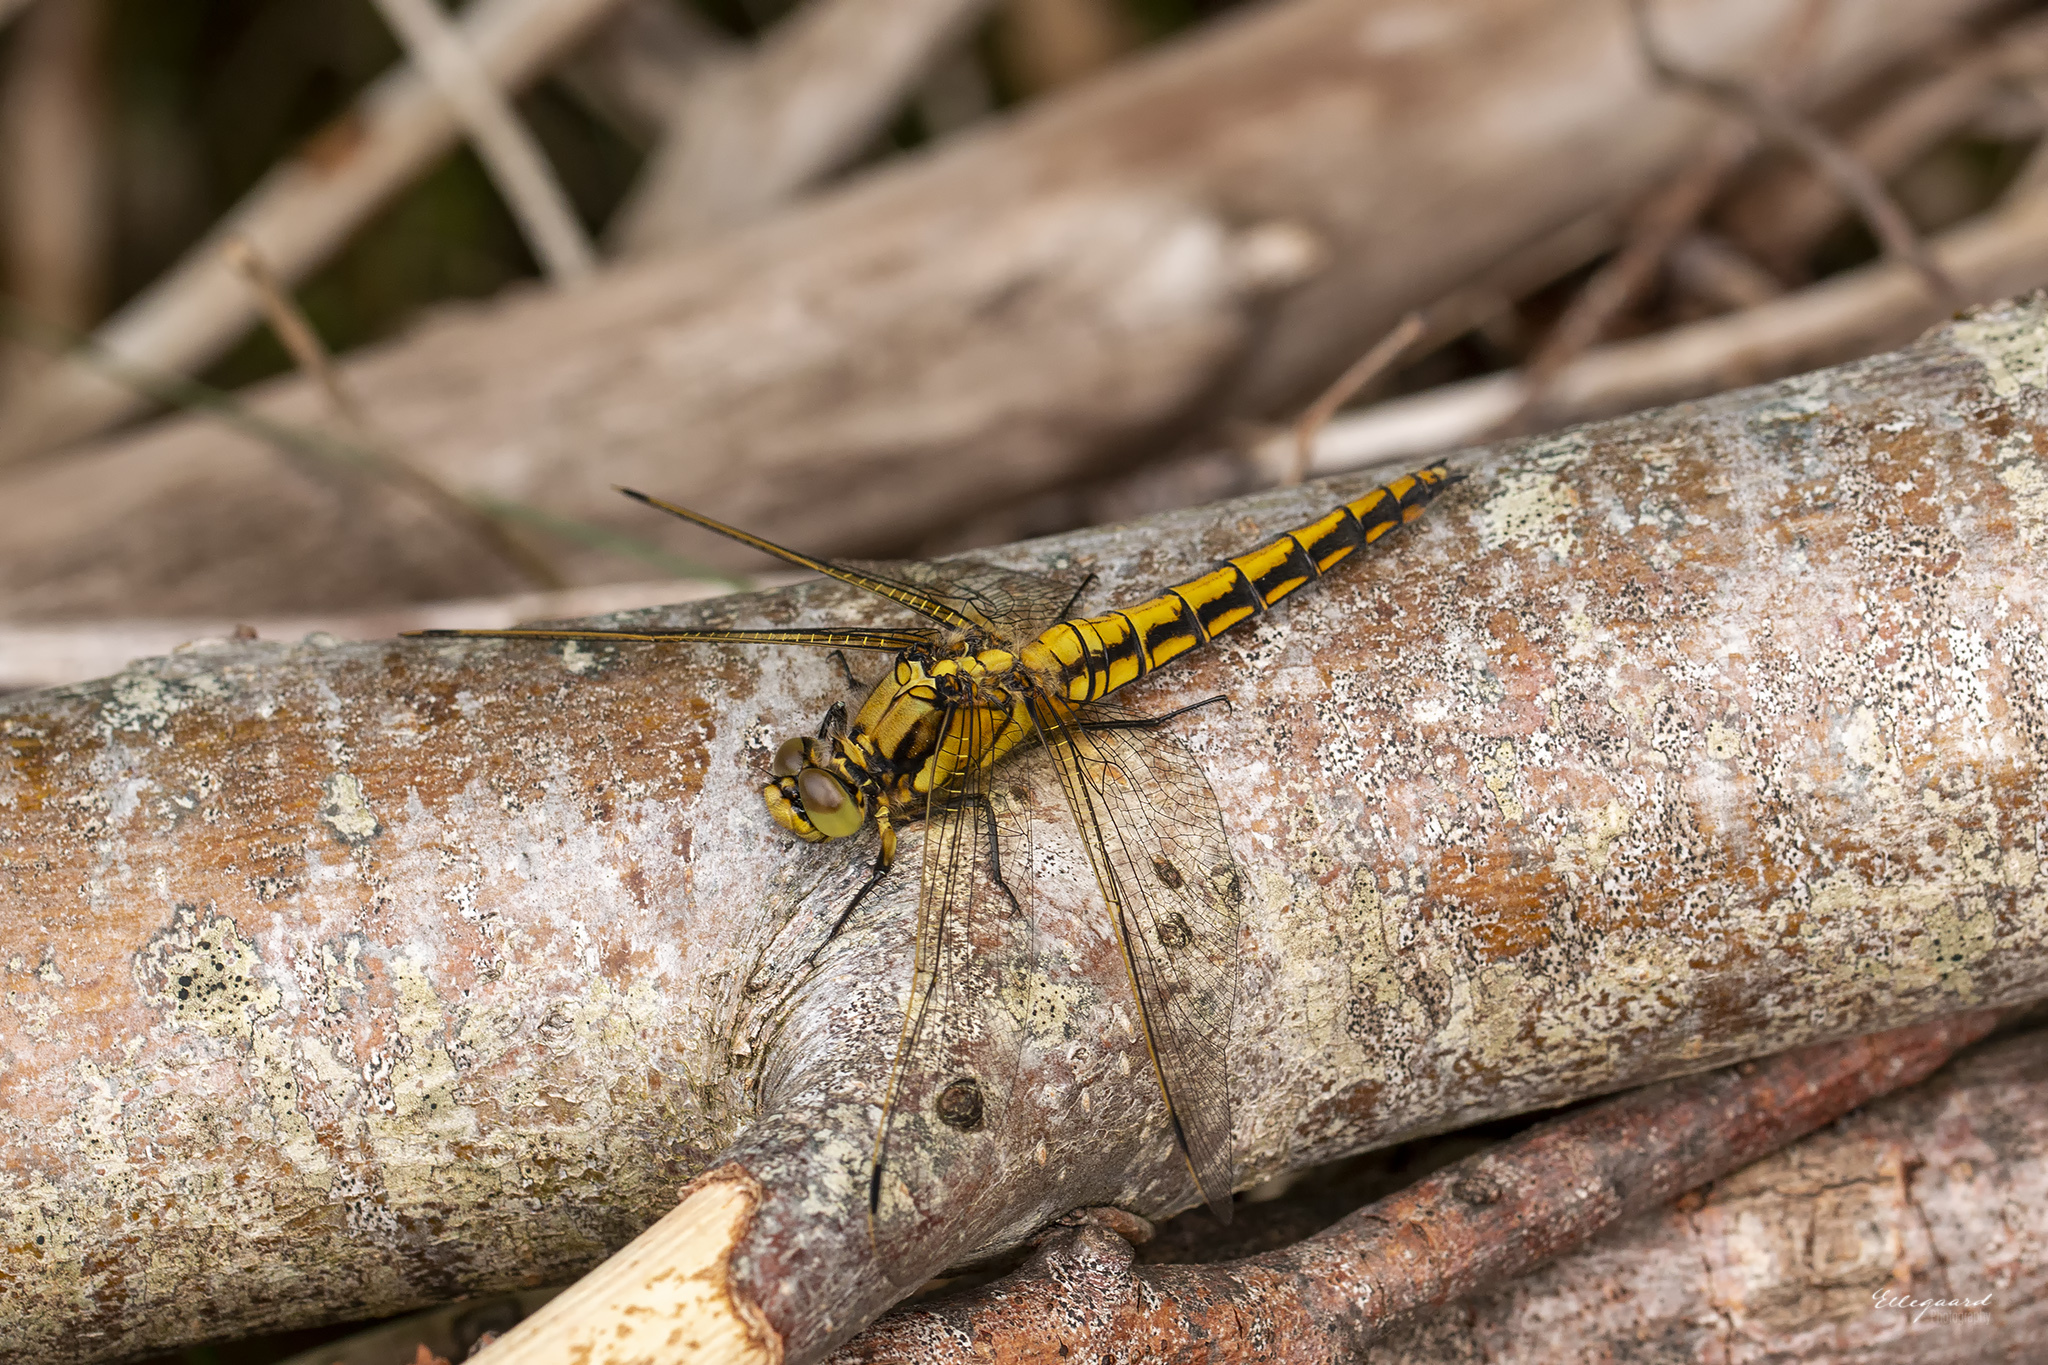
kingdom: Animalia
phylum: Arthropoda
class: Insecta
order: Odonata
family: Libellulidae
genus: Orthetrum
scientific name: Orthetrum cancellatum
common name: Black-tailed skimmer
